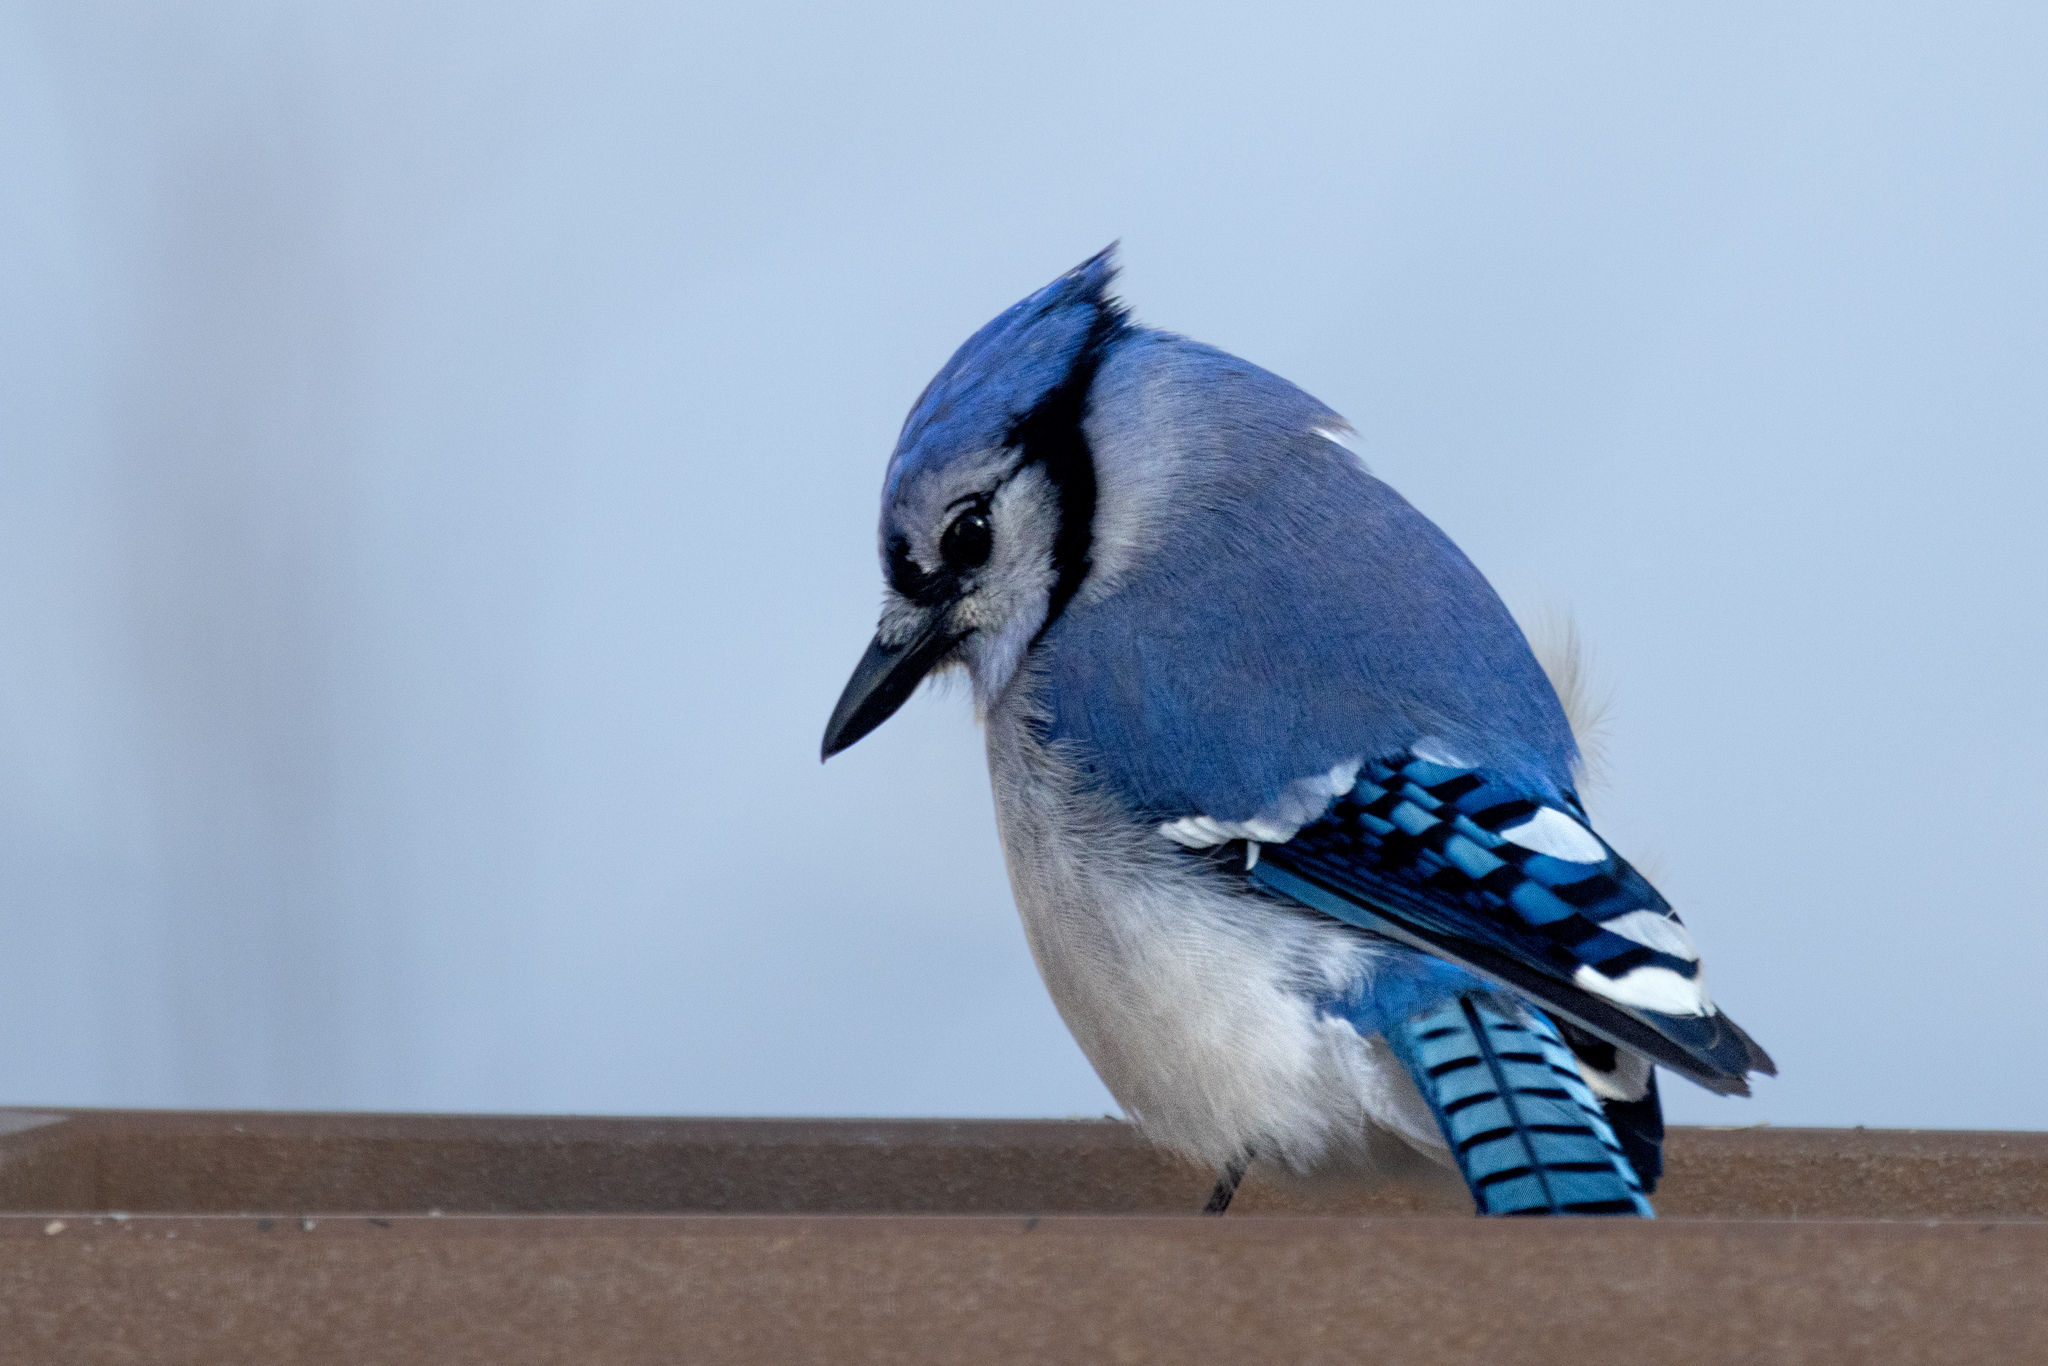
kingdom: Animalia
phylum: Chordata
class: Aves
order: Passeriformes
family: Corvidae
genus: Cyanocitta
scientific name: Cyanocitta cristata
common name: Blue jay
